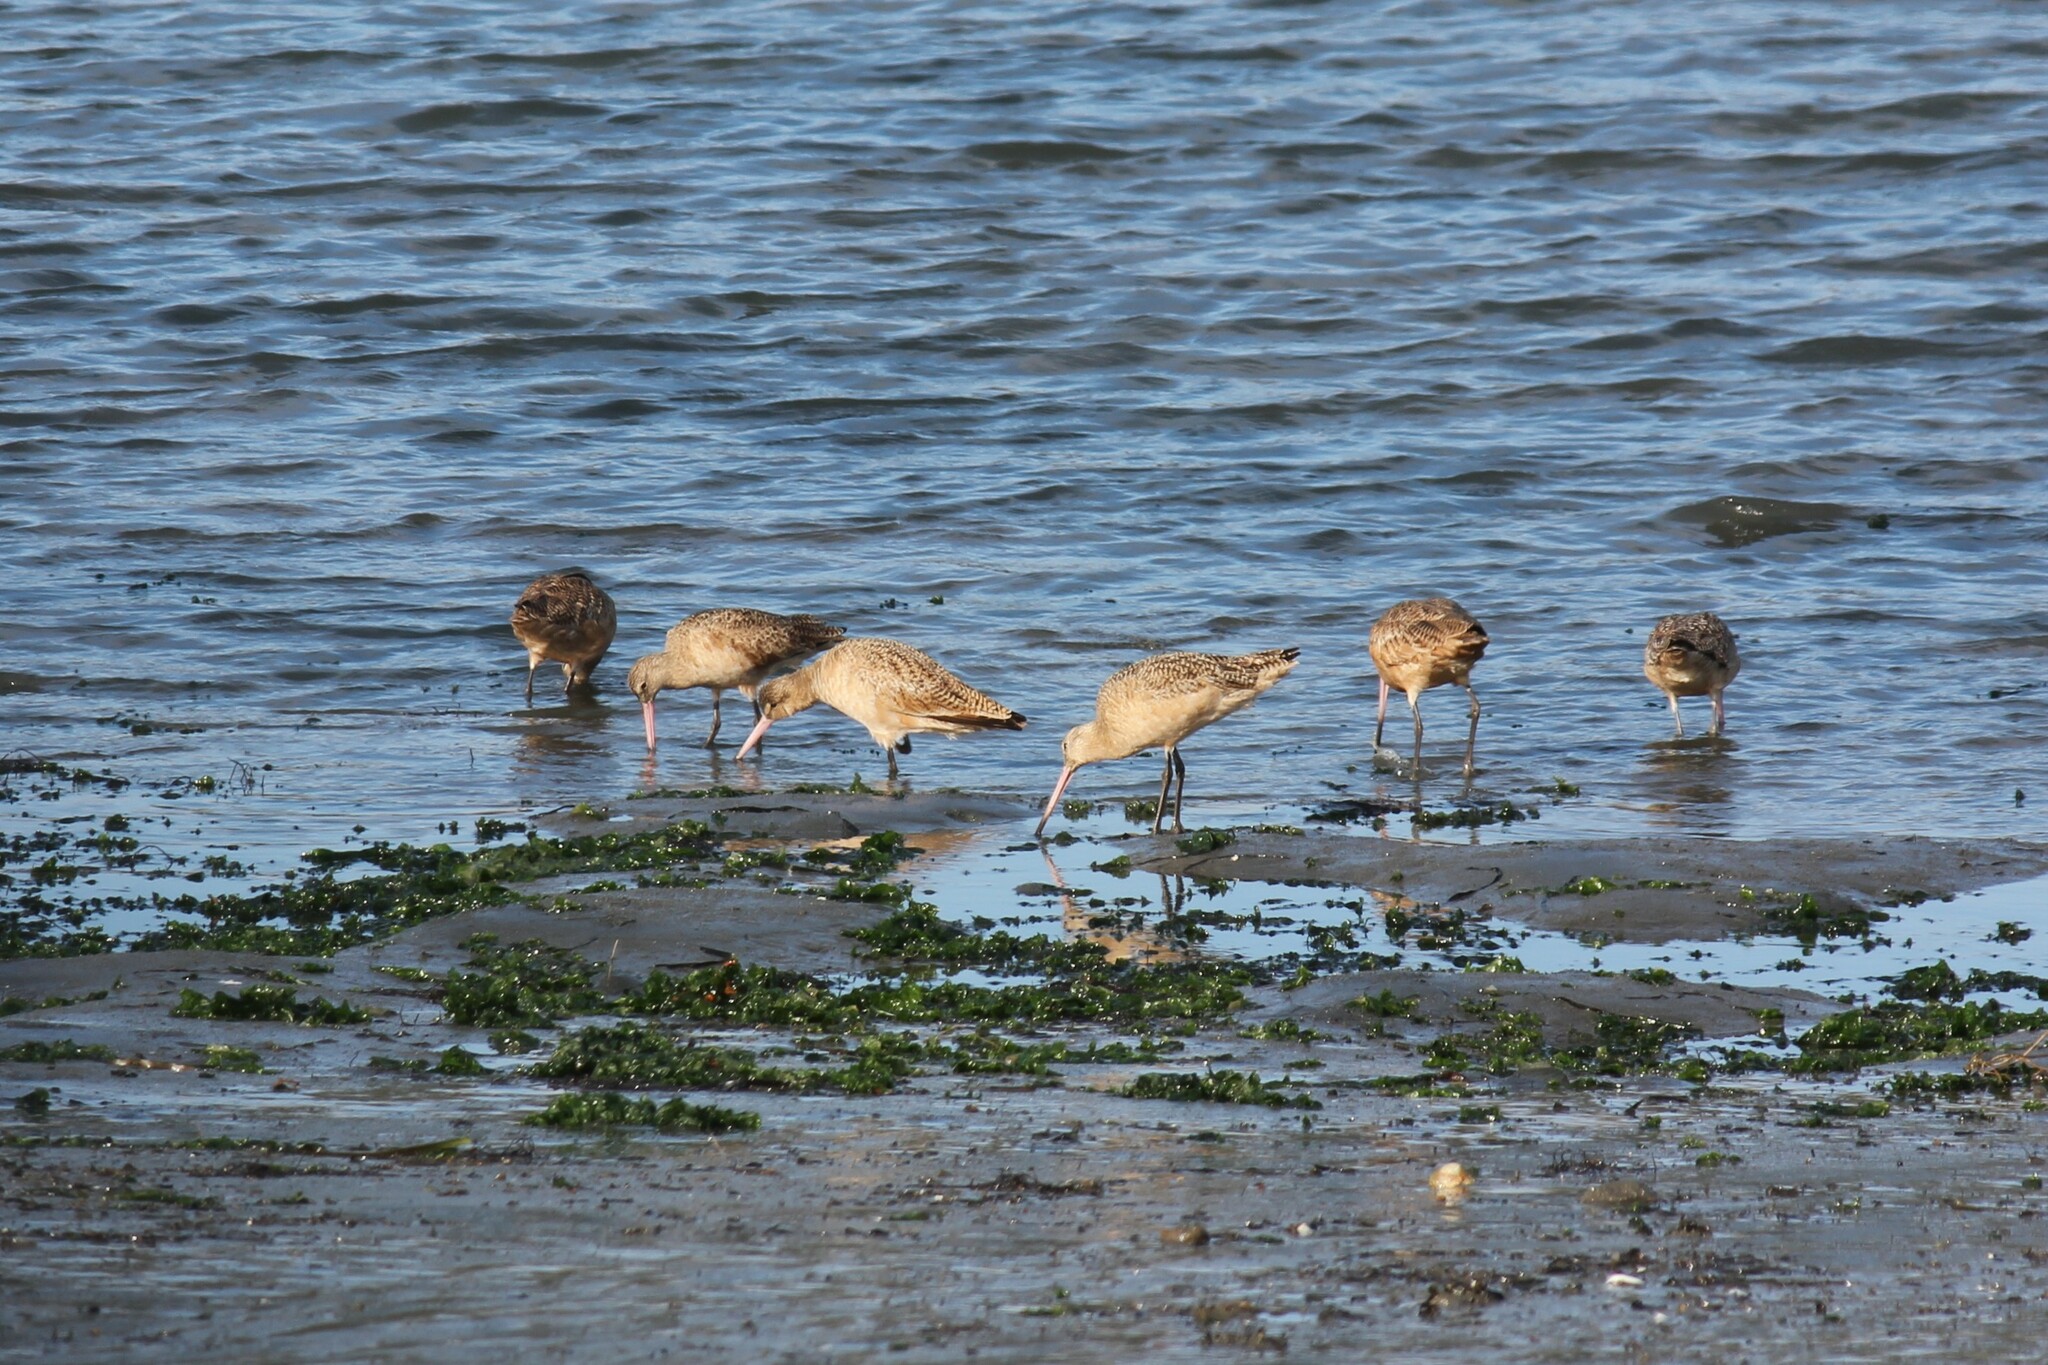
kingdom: Animalia
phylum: Chordata
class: Aves
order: Charadriiformes
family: Scolopacidae
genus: Limosa
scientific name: Limosa fedoa
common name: Marbled godwit
